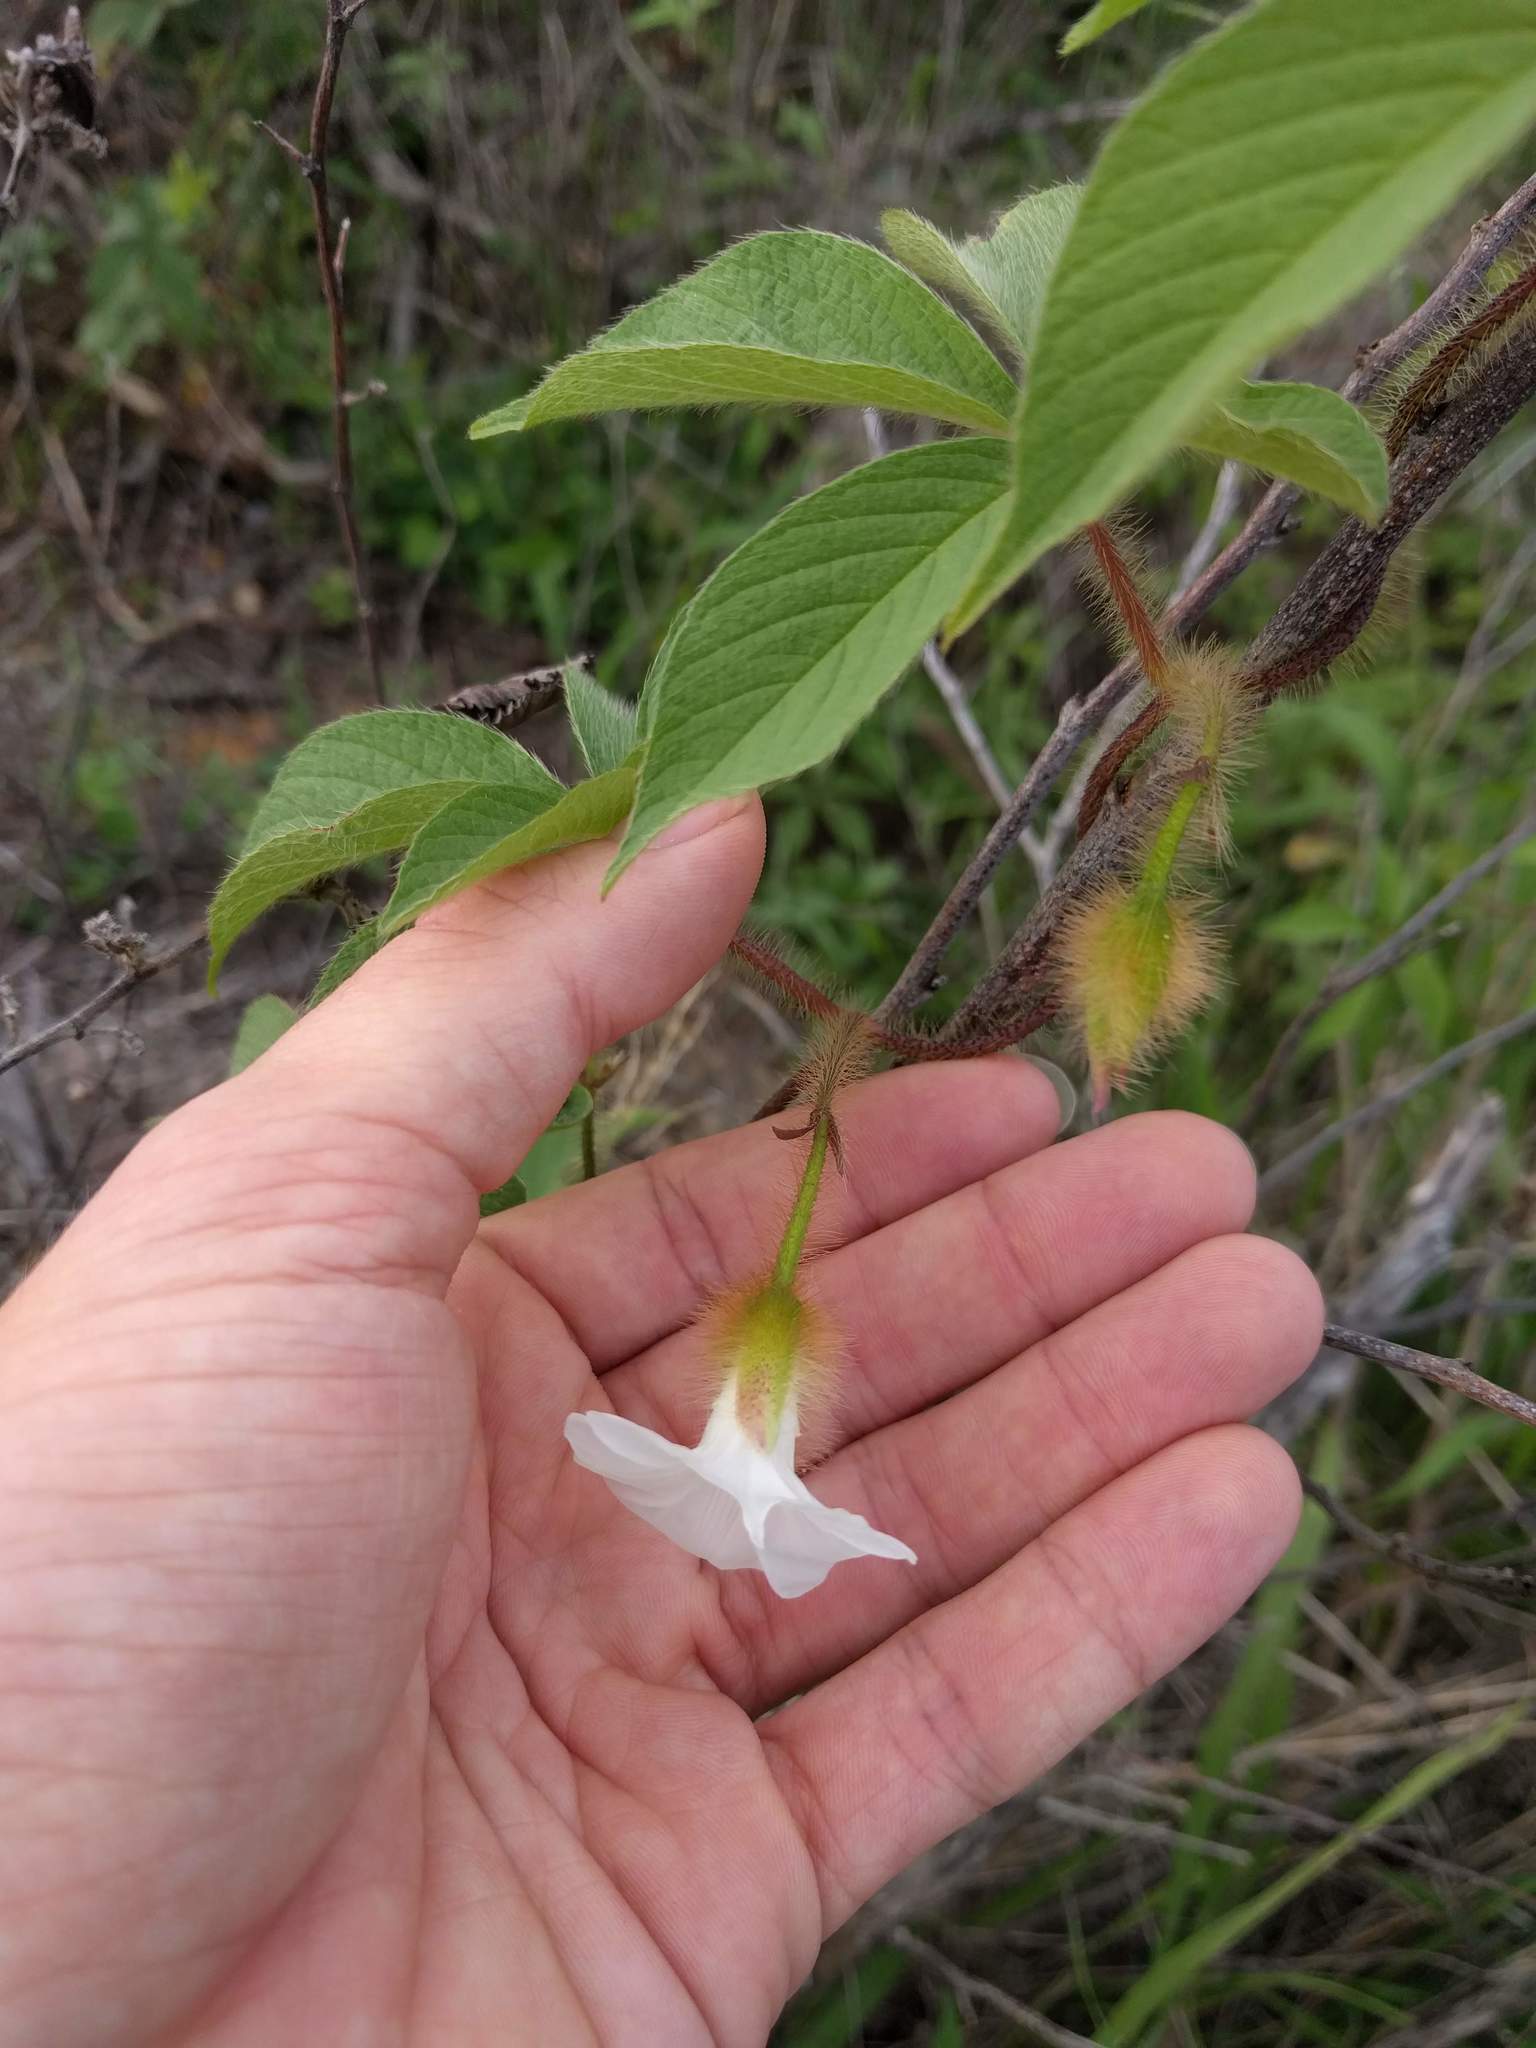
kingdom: Plantae
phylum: Tracheophyta
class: Magnoliopsida
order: Solanales
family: Convolvulaceae
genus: Distimake
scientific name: Distimake aegyptius
